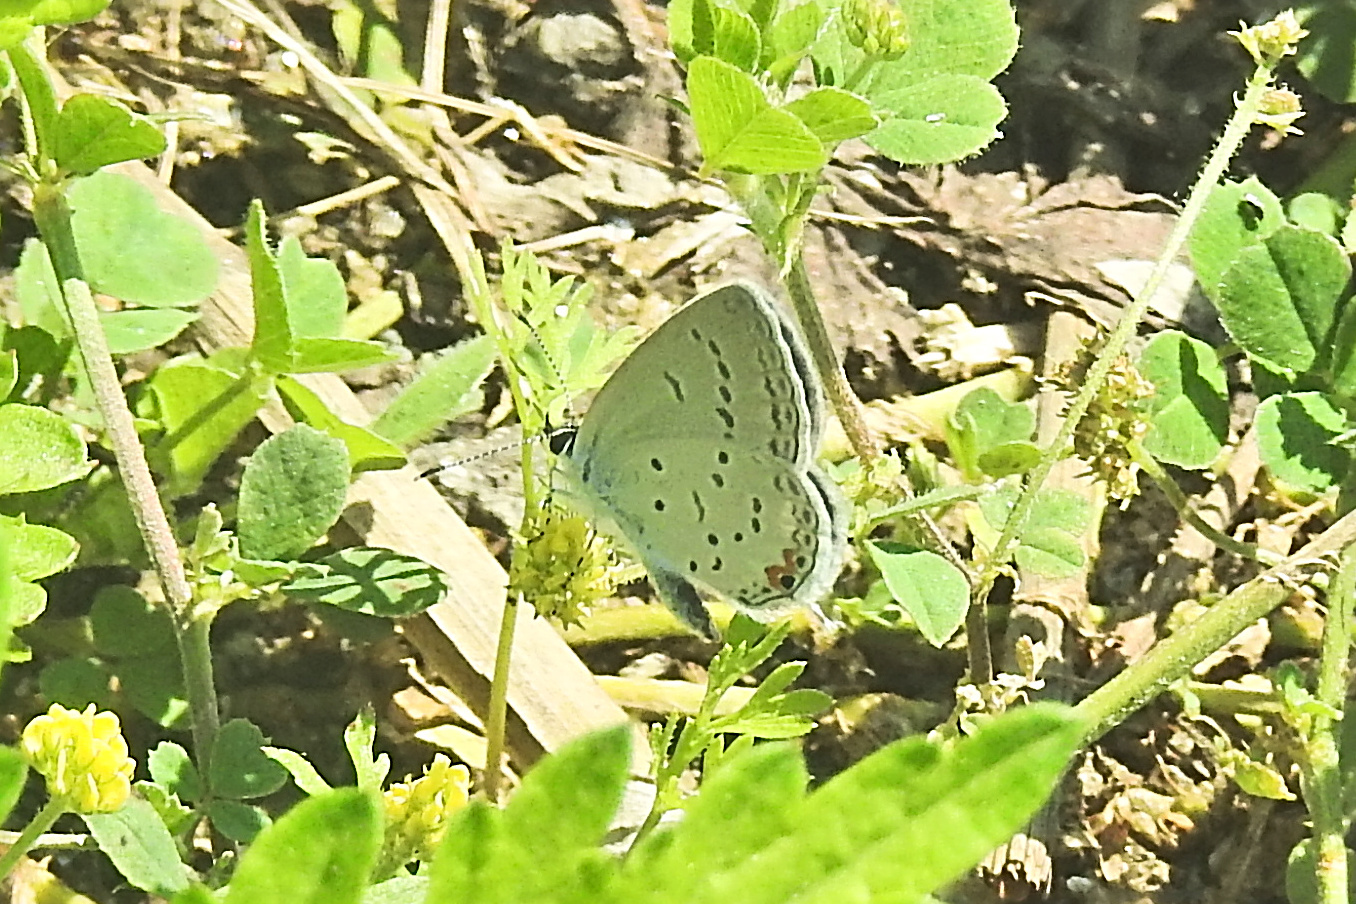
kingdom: Animalia
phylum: Arthropoda
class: Insecta
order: Lepidoptera
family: Lycaenidae
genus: Elkalyce
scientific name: Elkalyce comyntas
